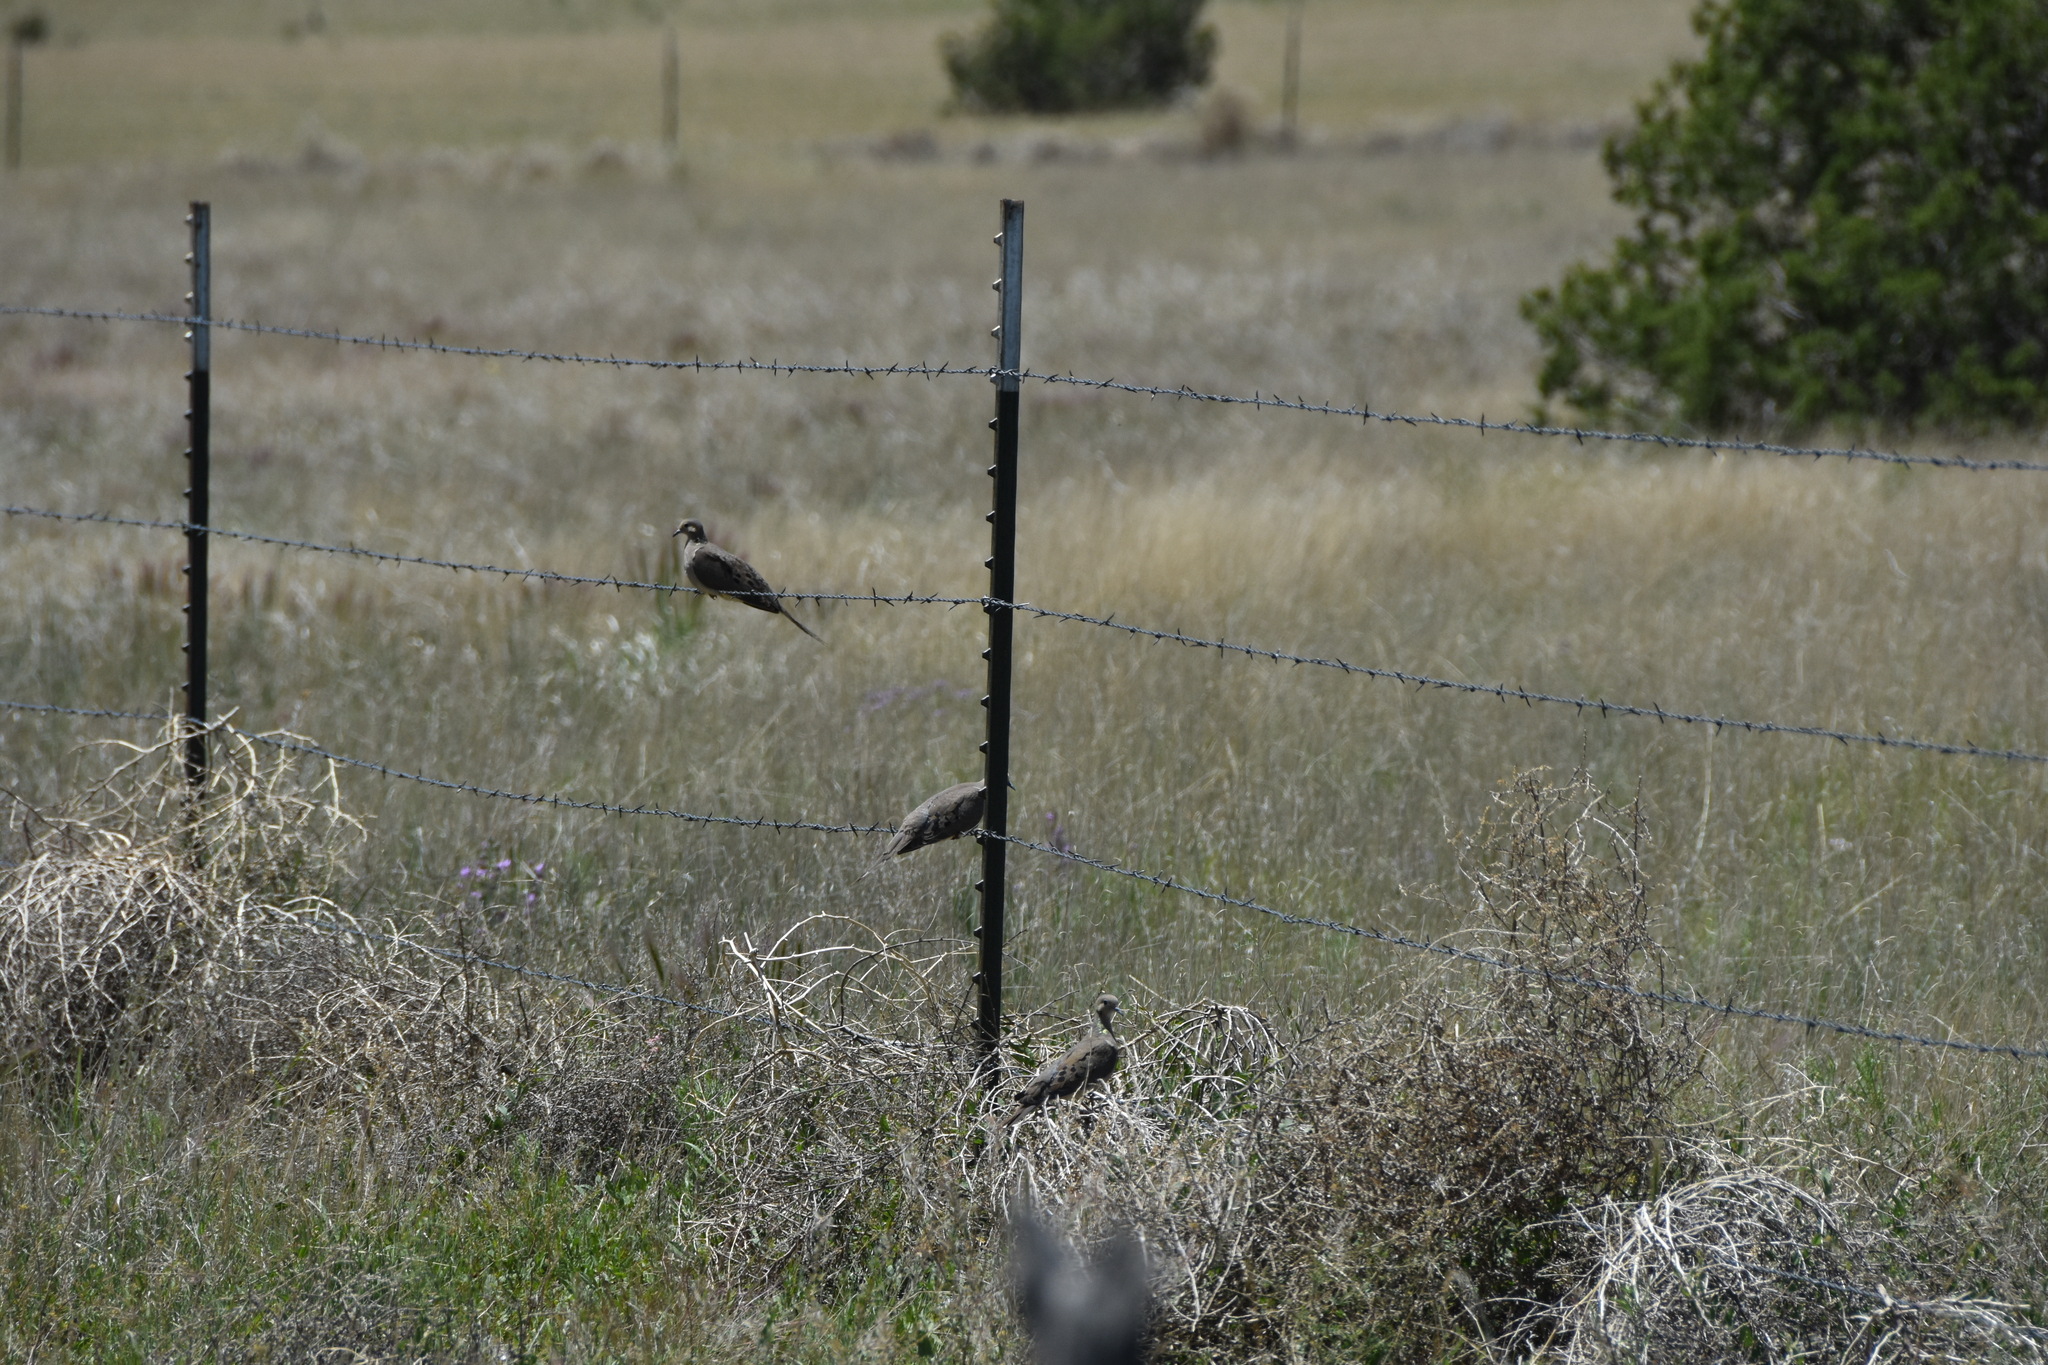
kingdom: Animalia
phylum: Chordata
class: Aves
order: Columbiformes
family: Columbidae
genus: Zenaida
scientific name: Zenaida macroura
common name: Mourning dove
